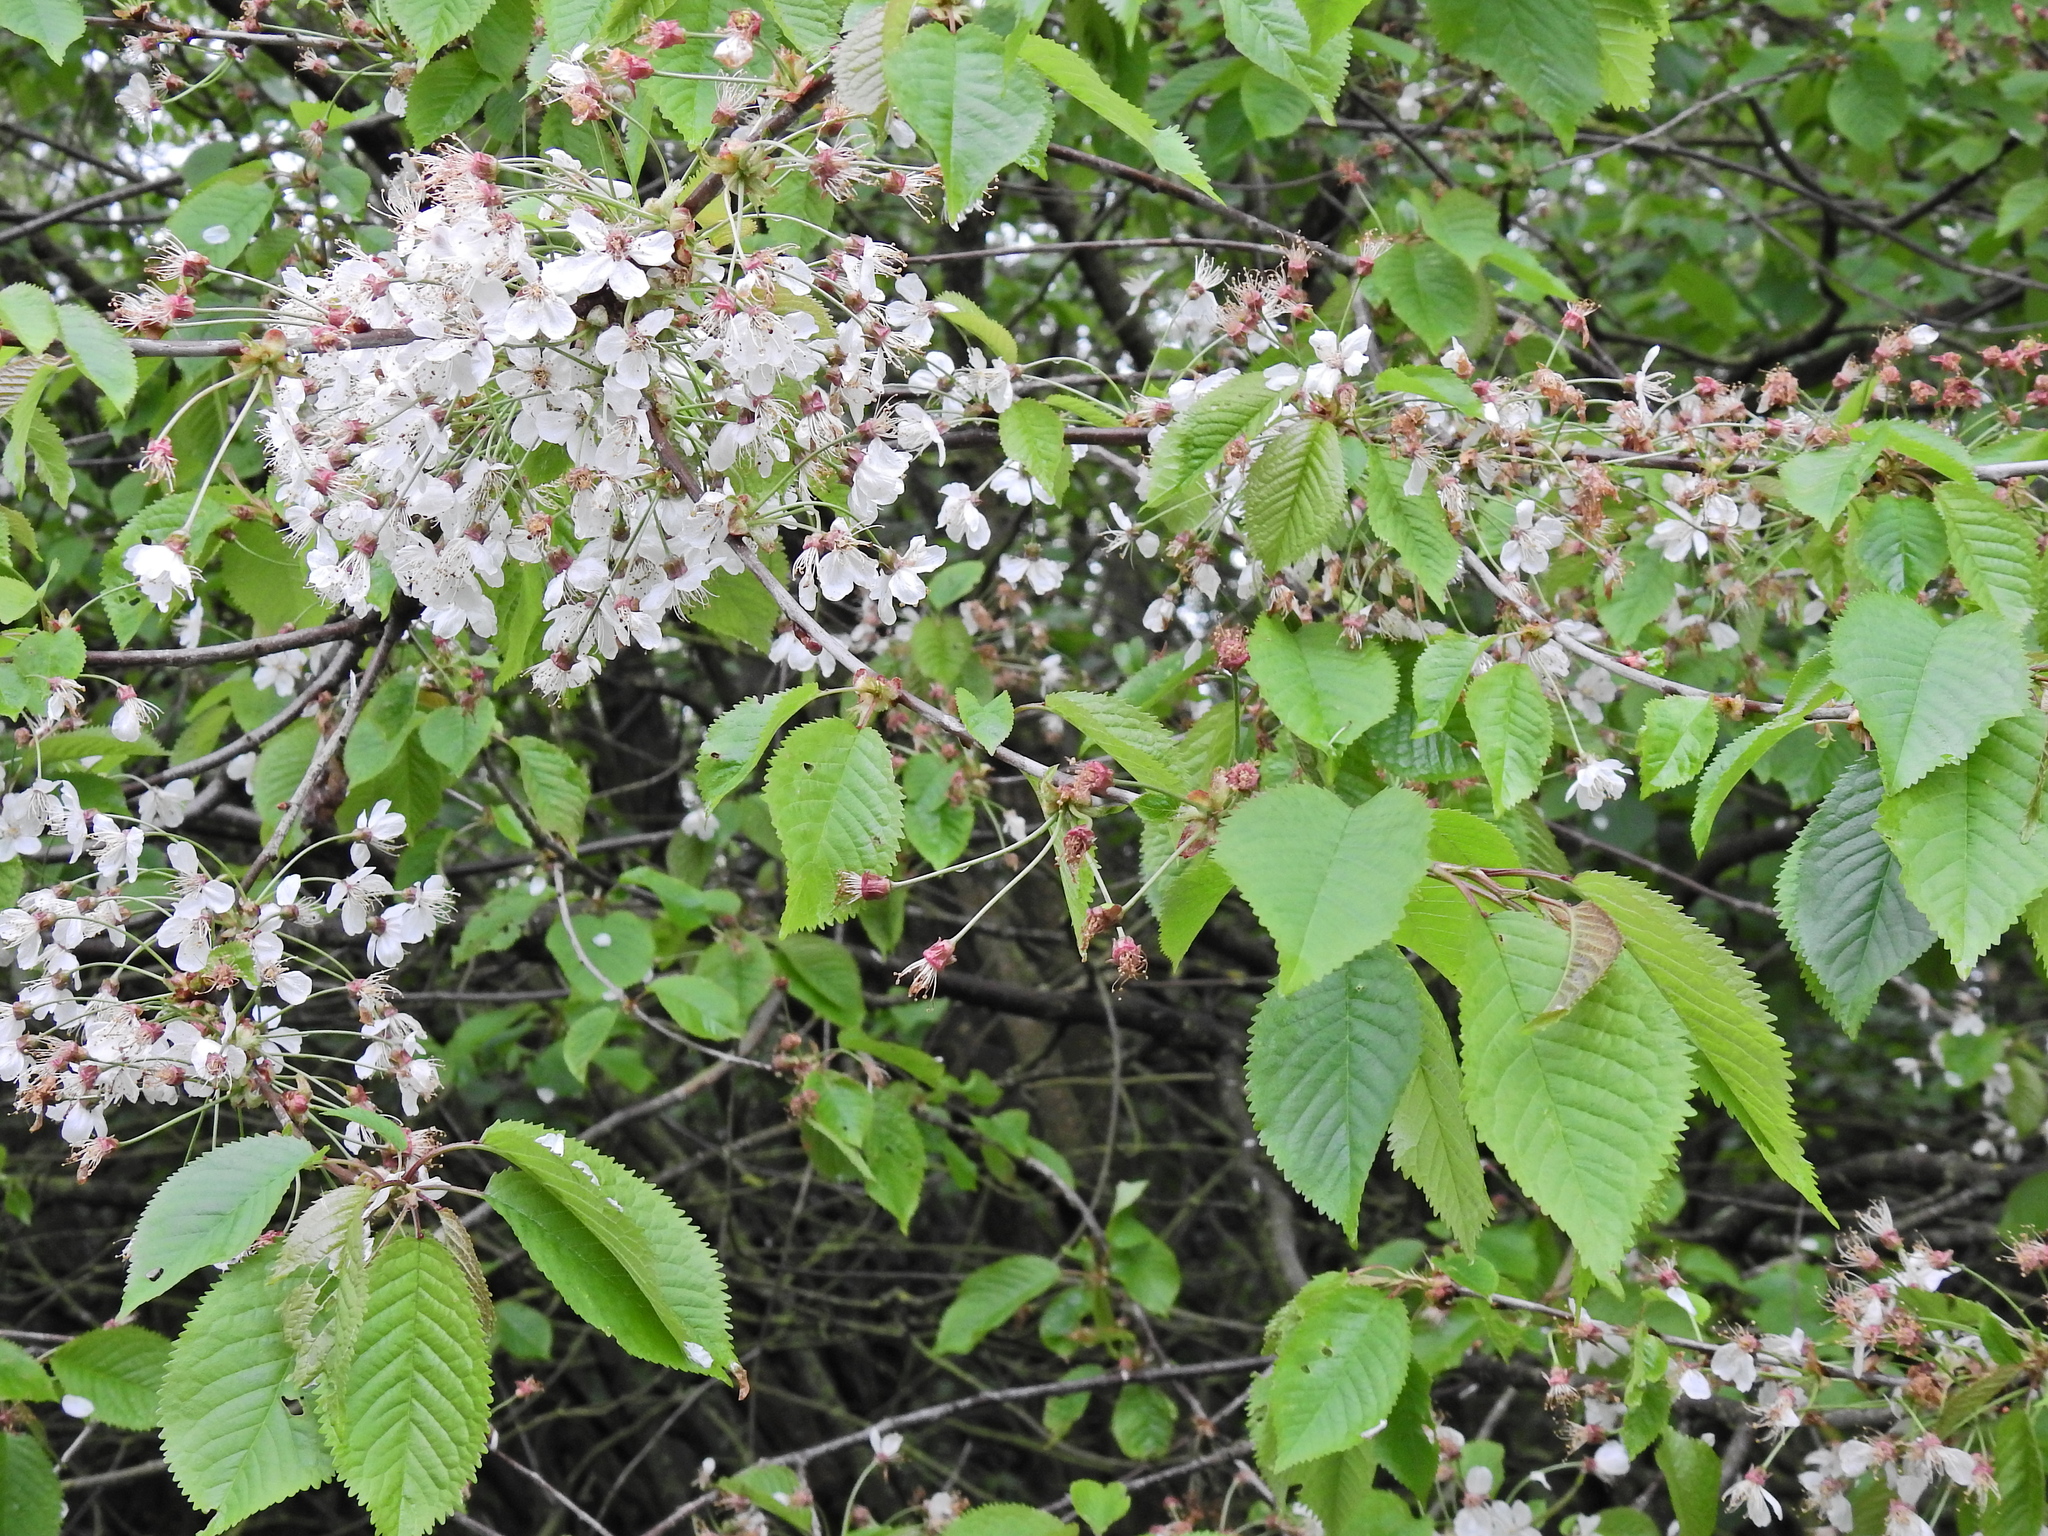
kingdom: Plantae
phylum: Tracheophyta
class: Magnoliopsida
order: Rosales
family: Rosaceae
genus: Prunus
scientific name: Prunus avium
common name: Sweet cherry
